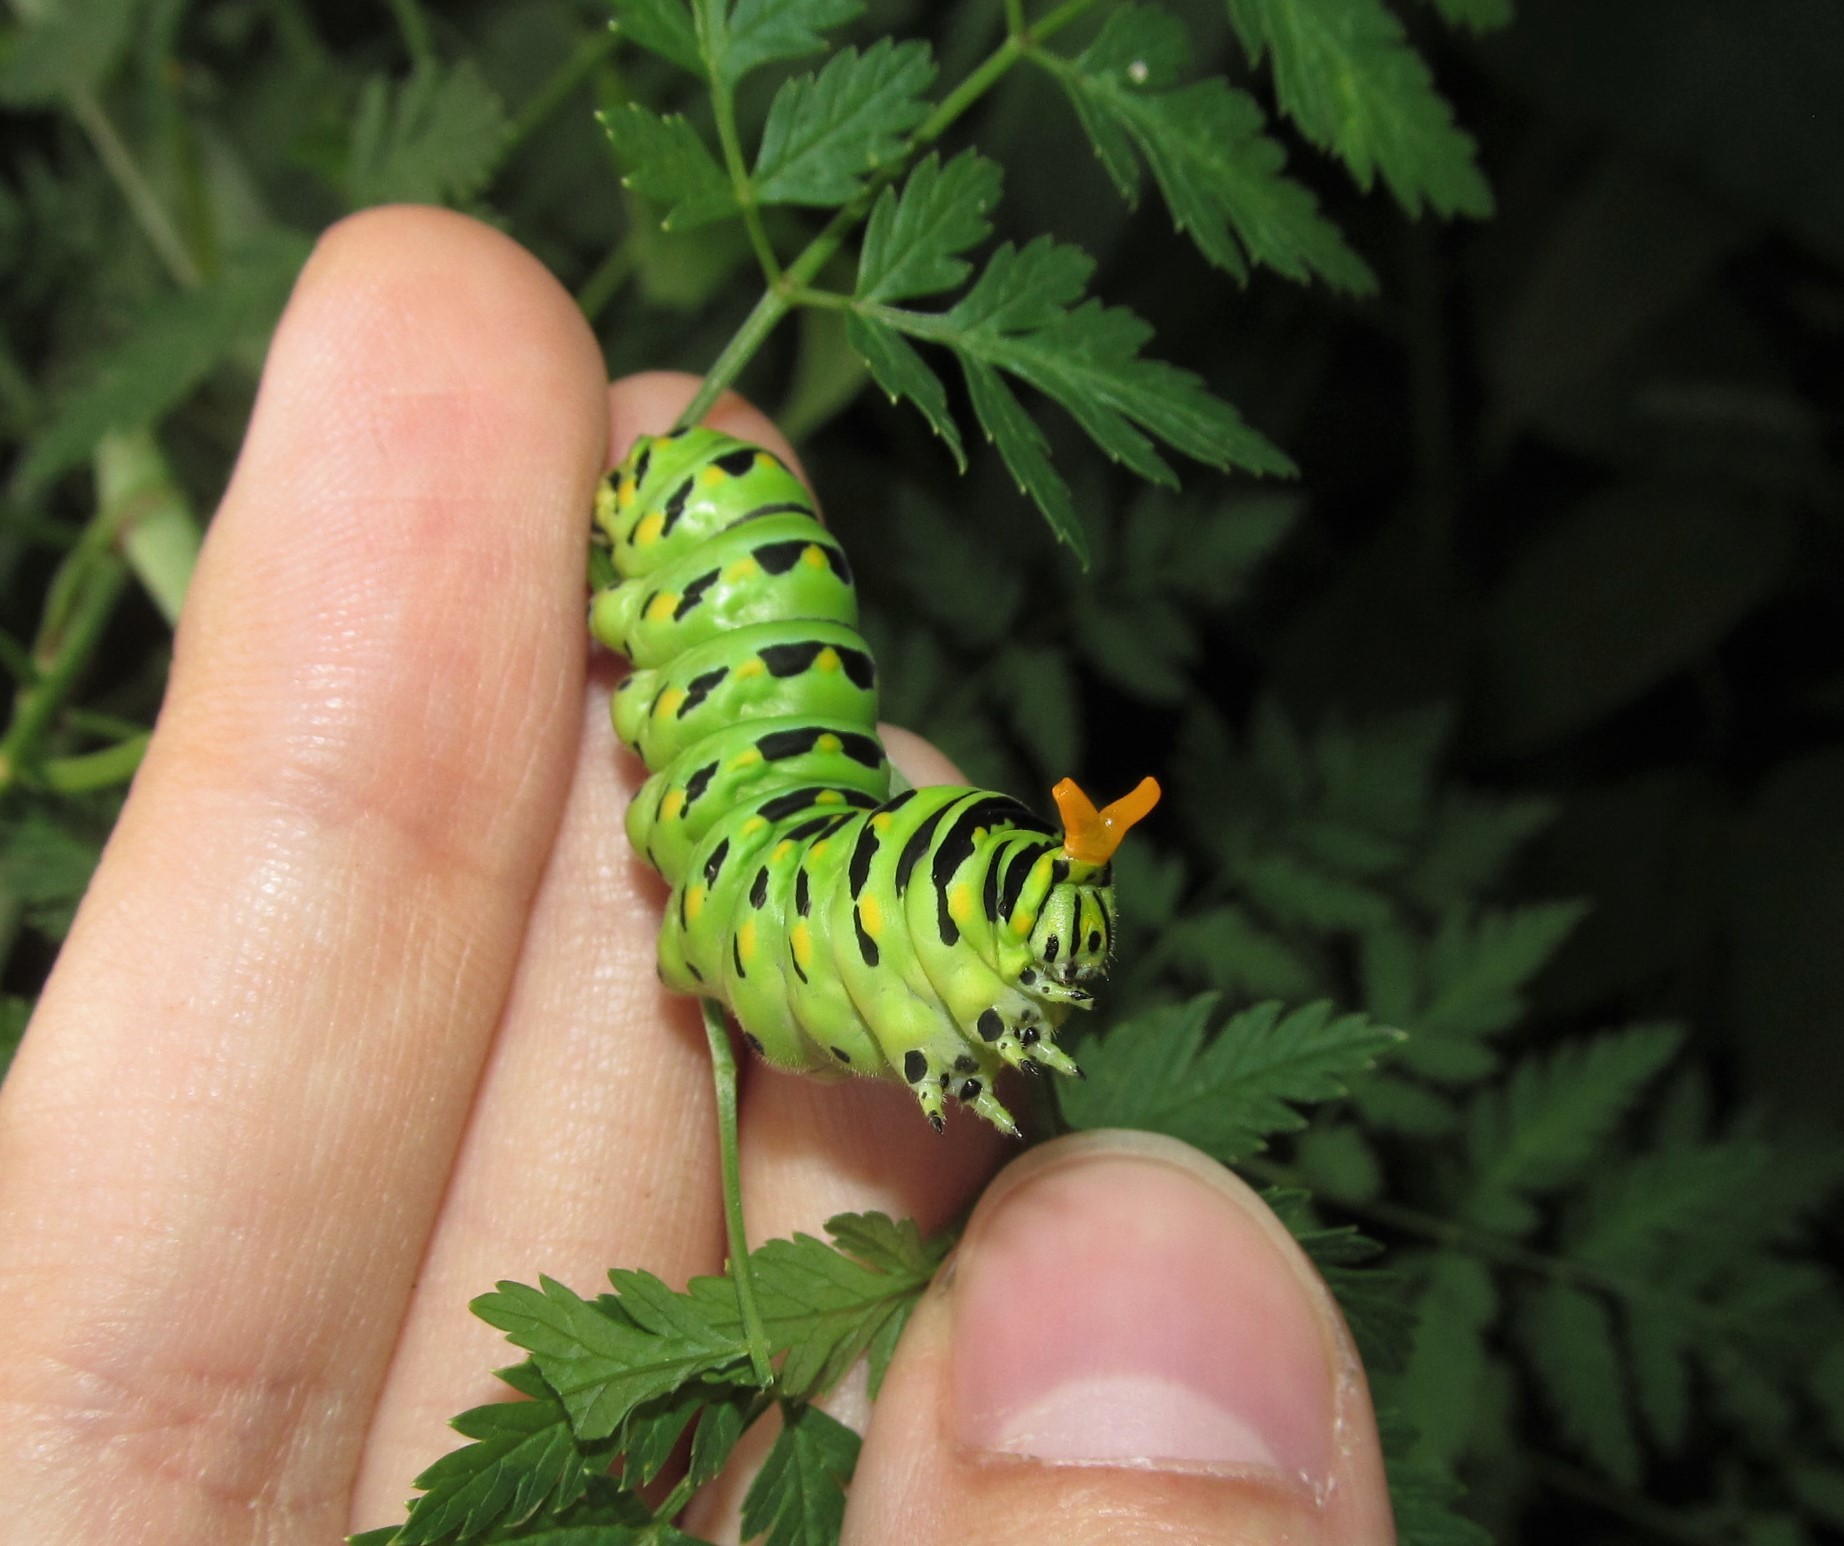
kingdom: Animalia
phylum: Arthropoda
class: Insecta
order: Lepidoptera
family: Papilionidae
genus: Papilio
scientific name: Papilio polyxenes
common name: Black swallowtail
